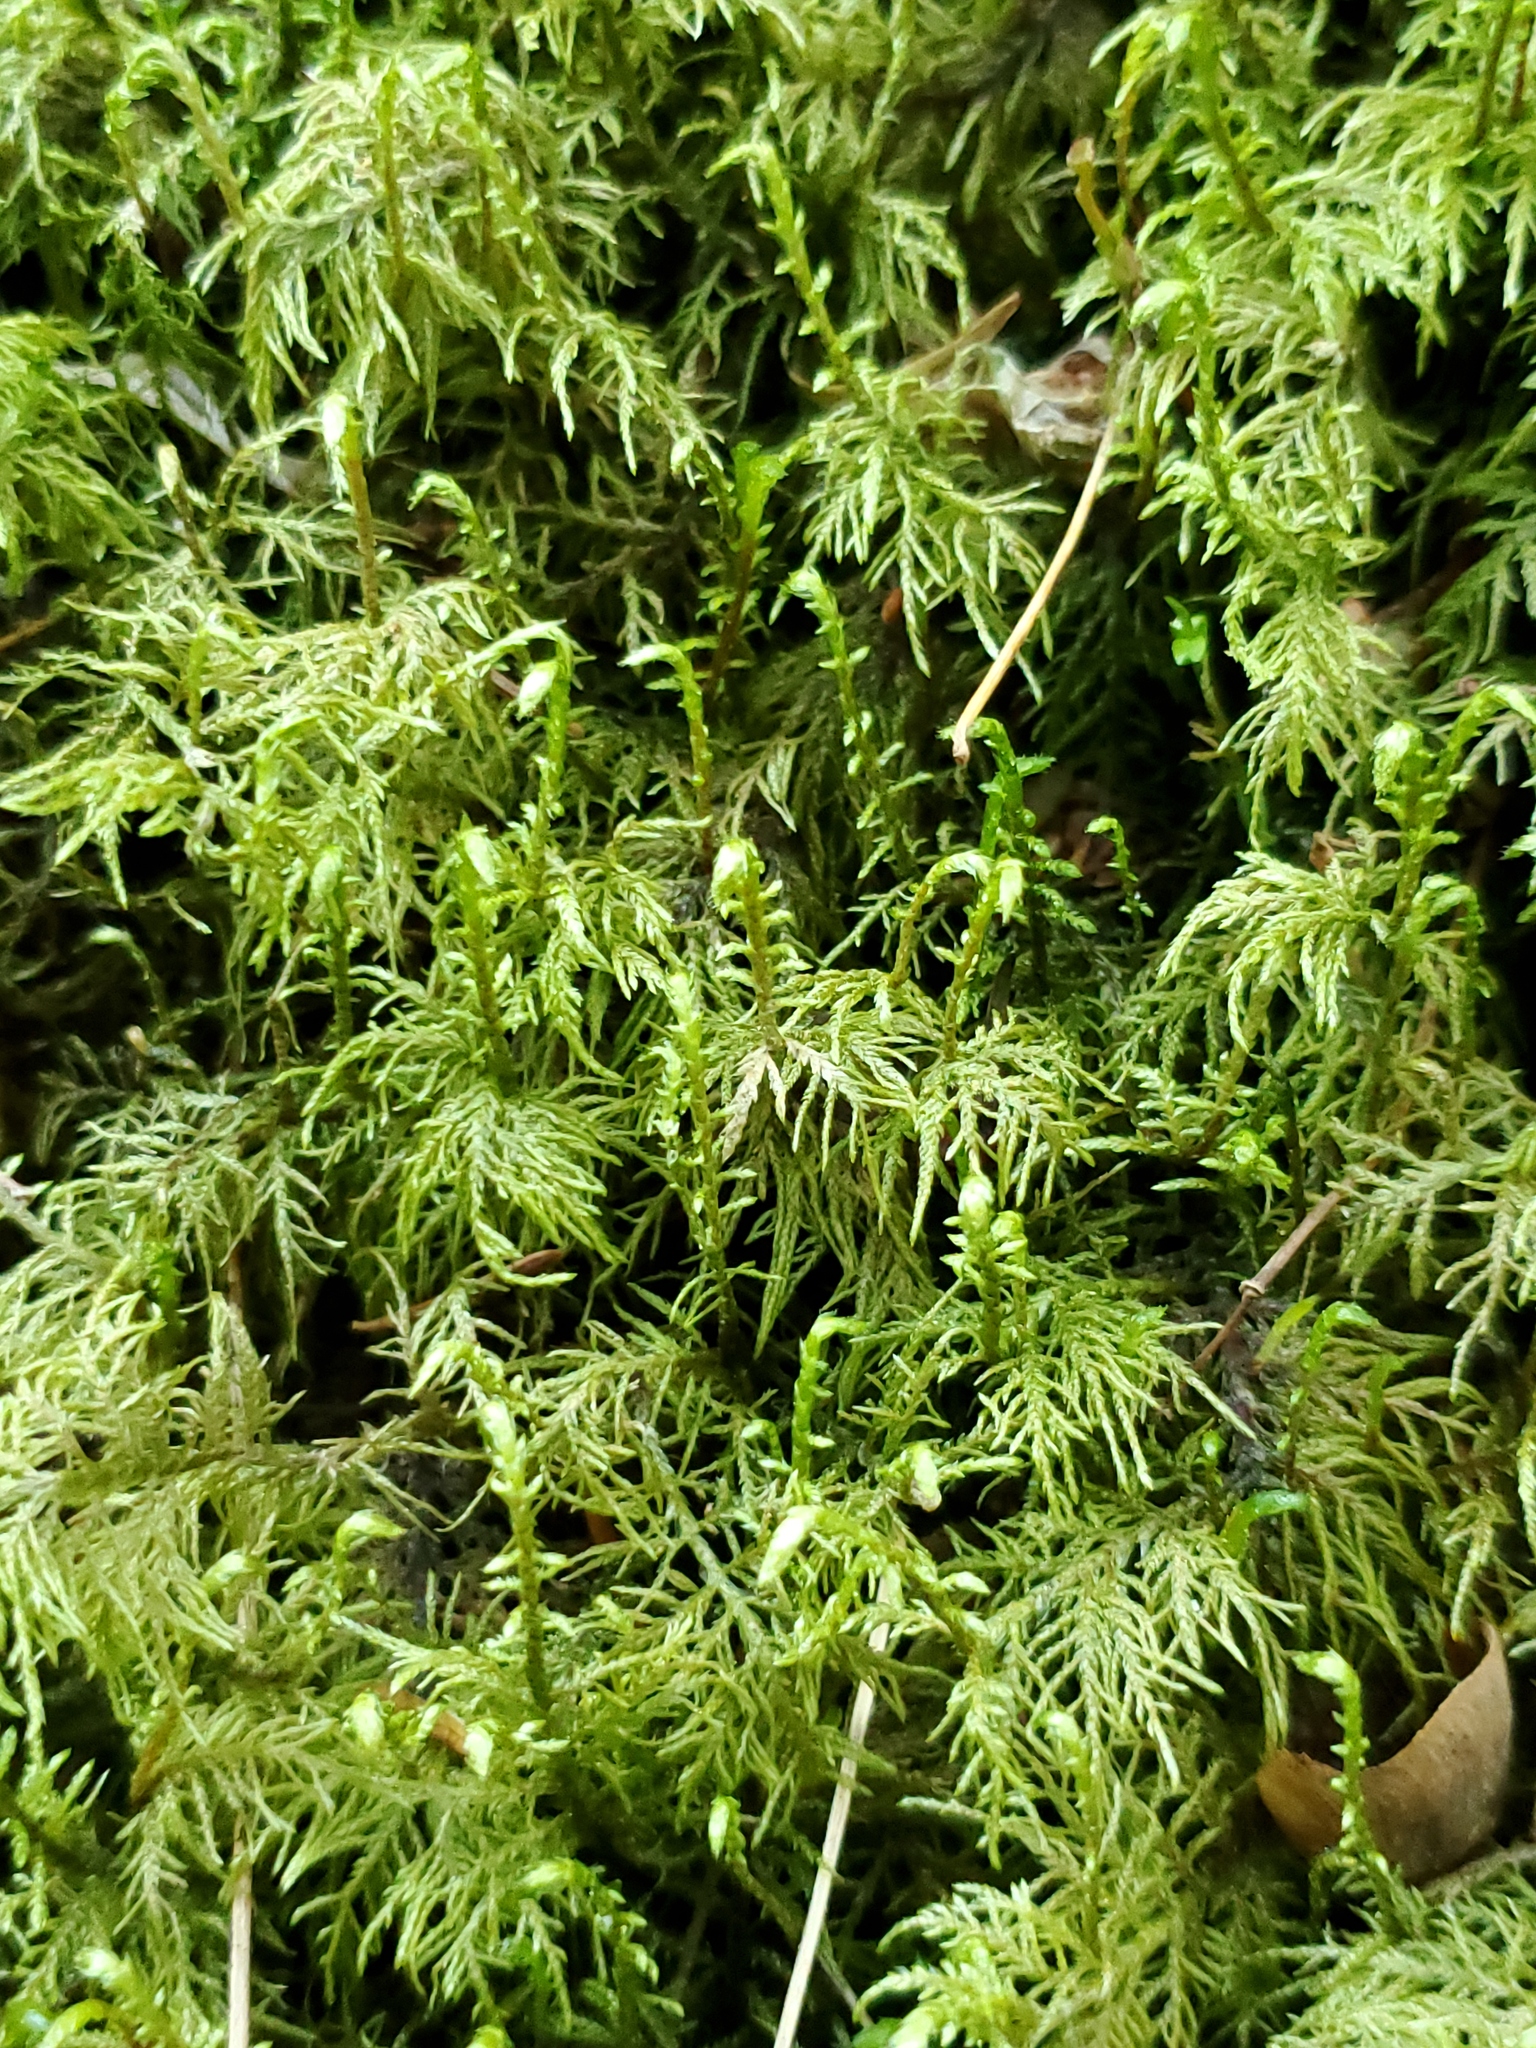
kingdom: Plantae
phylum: Bryophyta
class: Bryopsida
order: Hypnales
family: Hylocomiaceae
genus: Hylocomium
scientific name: Hylocomium splendens
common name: Stairstep moss
